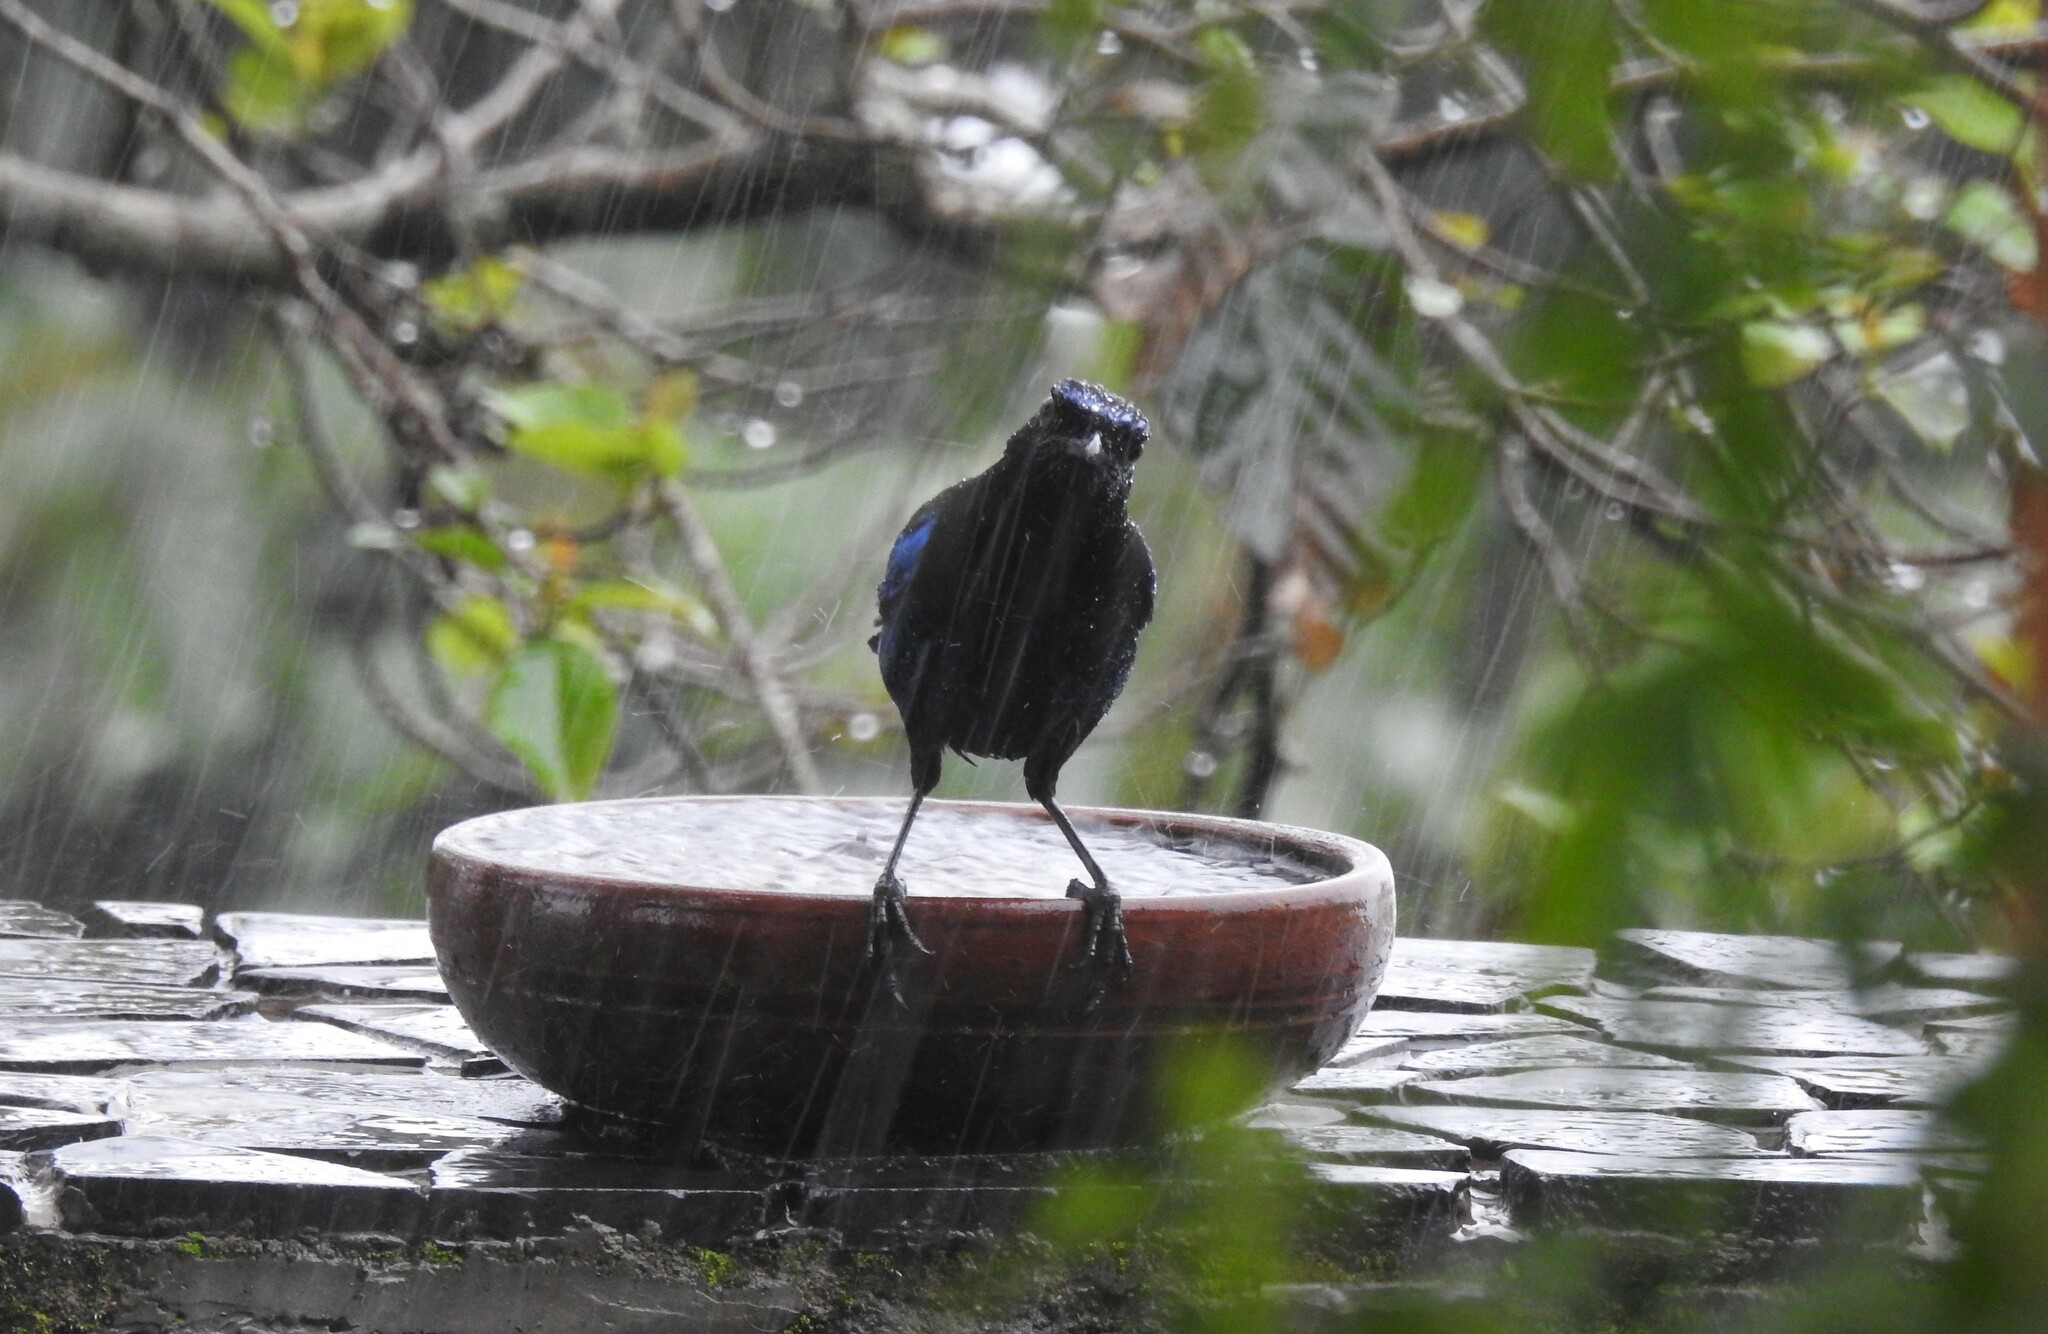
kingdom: Animalia
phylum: Chordata
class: Aves
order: Passeriformes
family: Muscicapidae
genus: Myophonus
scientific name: Myophonus horsfieldii
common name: Malabar whistling-thrush
